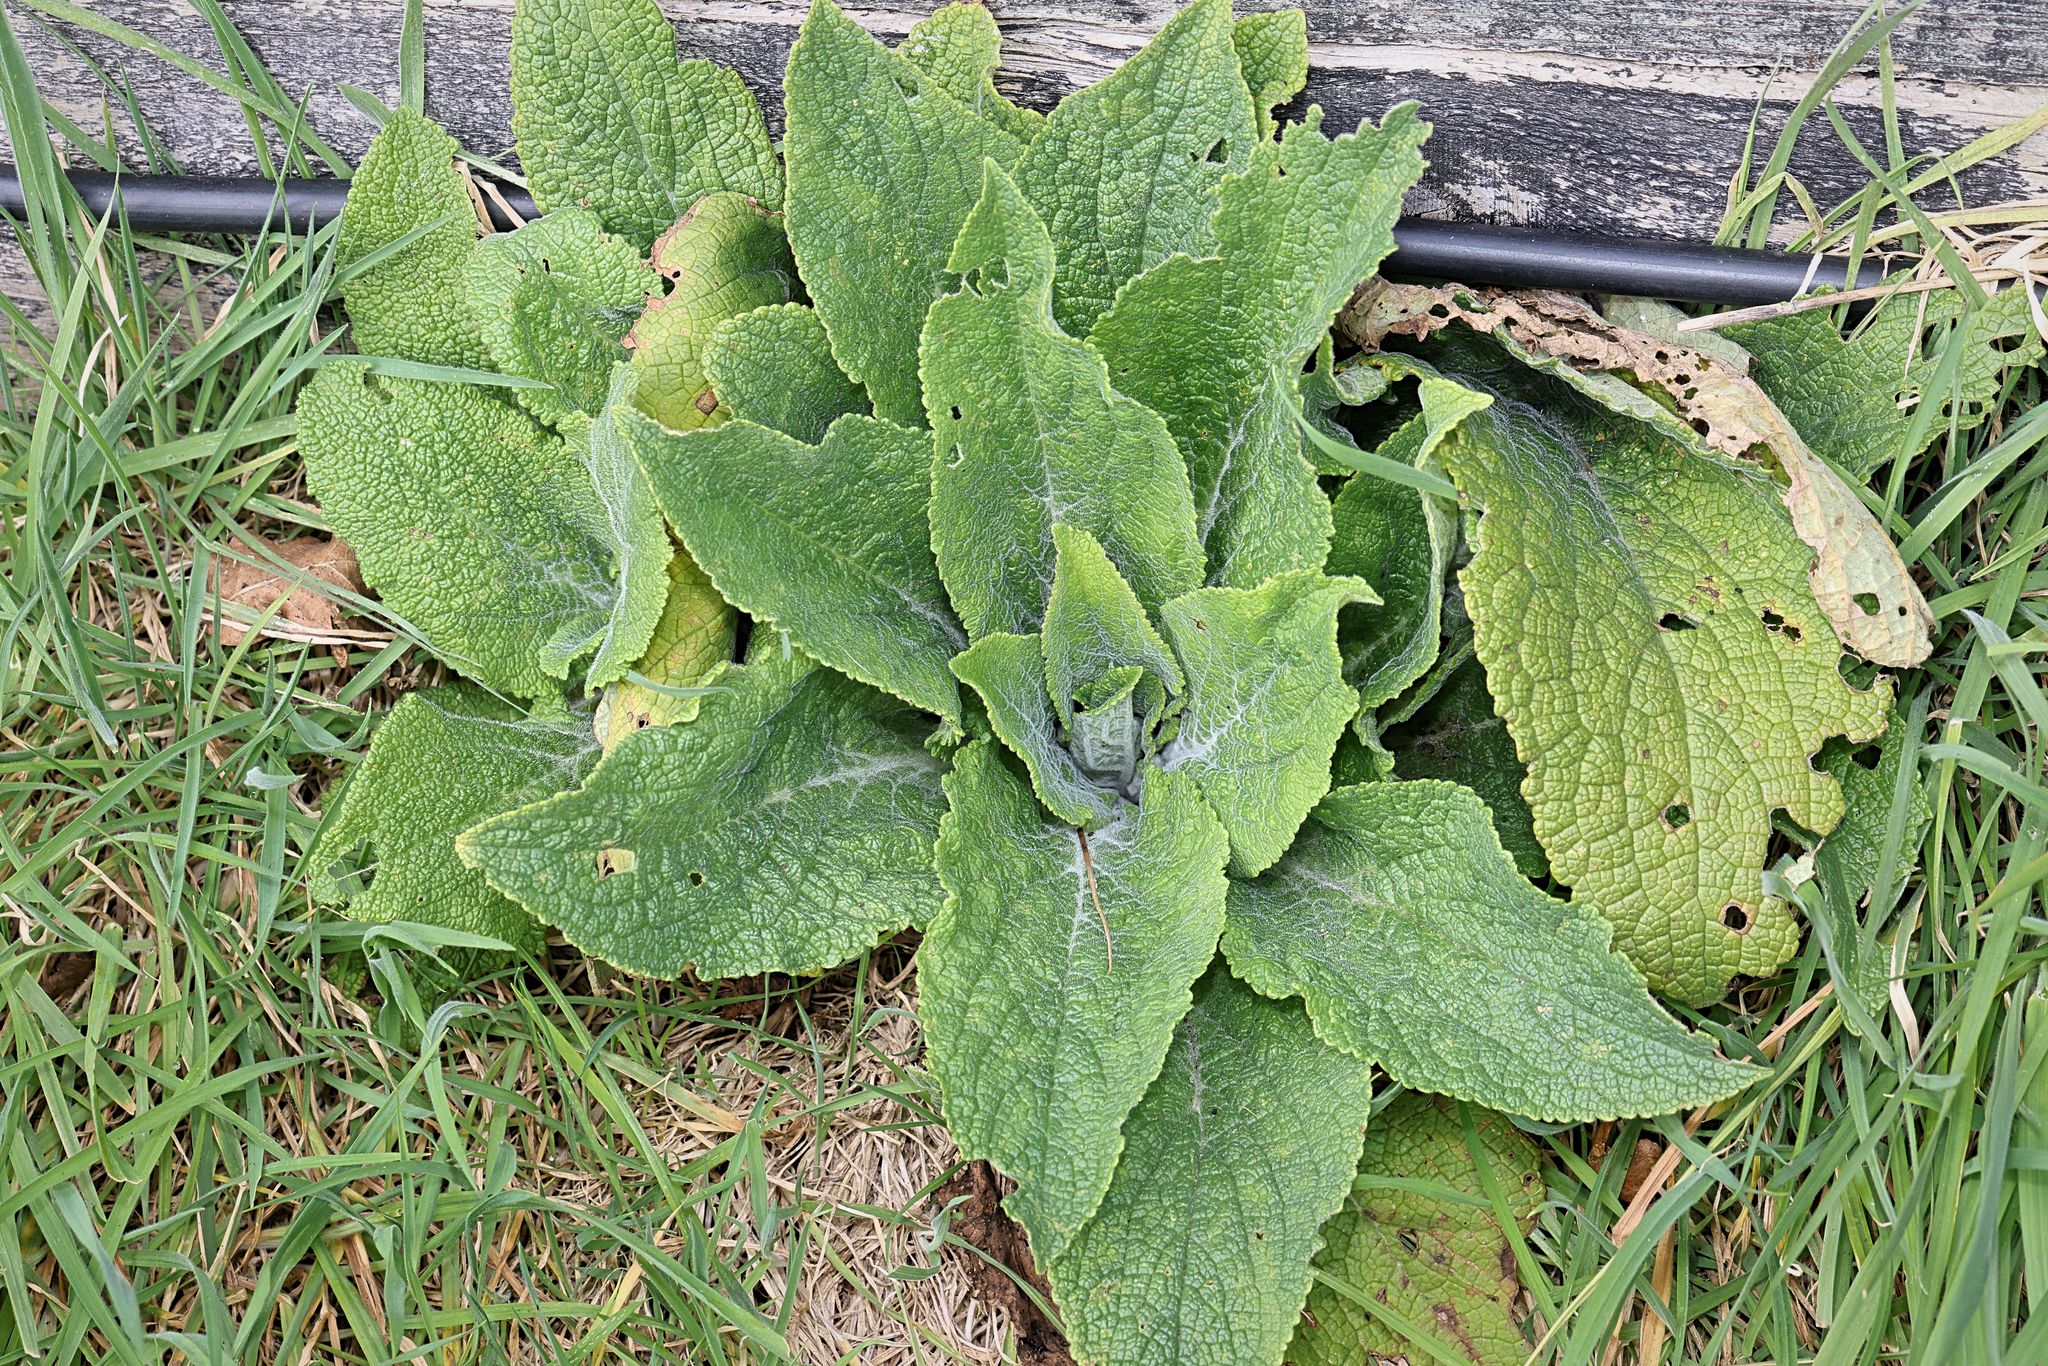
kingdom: Plantae
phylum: Tracheophyta
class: Magnoliopsida
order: Lamiales
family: Plantaginaceae
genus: Digitalis
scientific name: Digitalis purpurea
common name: Foxglove
